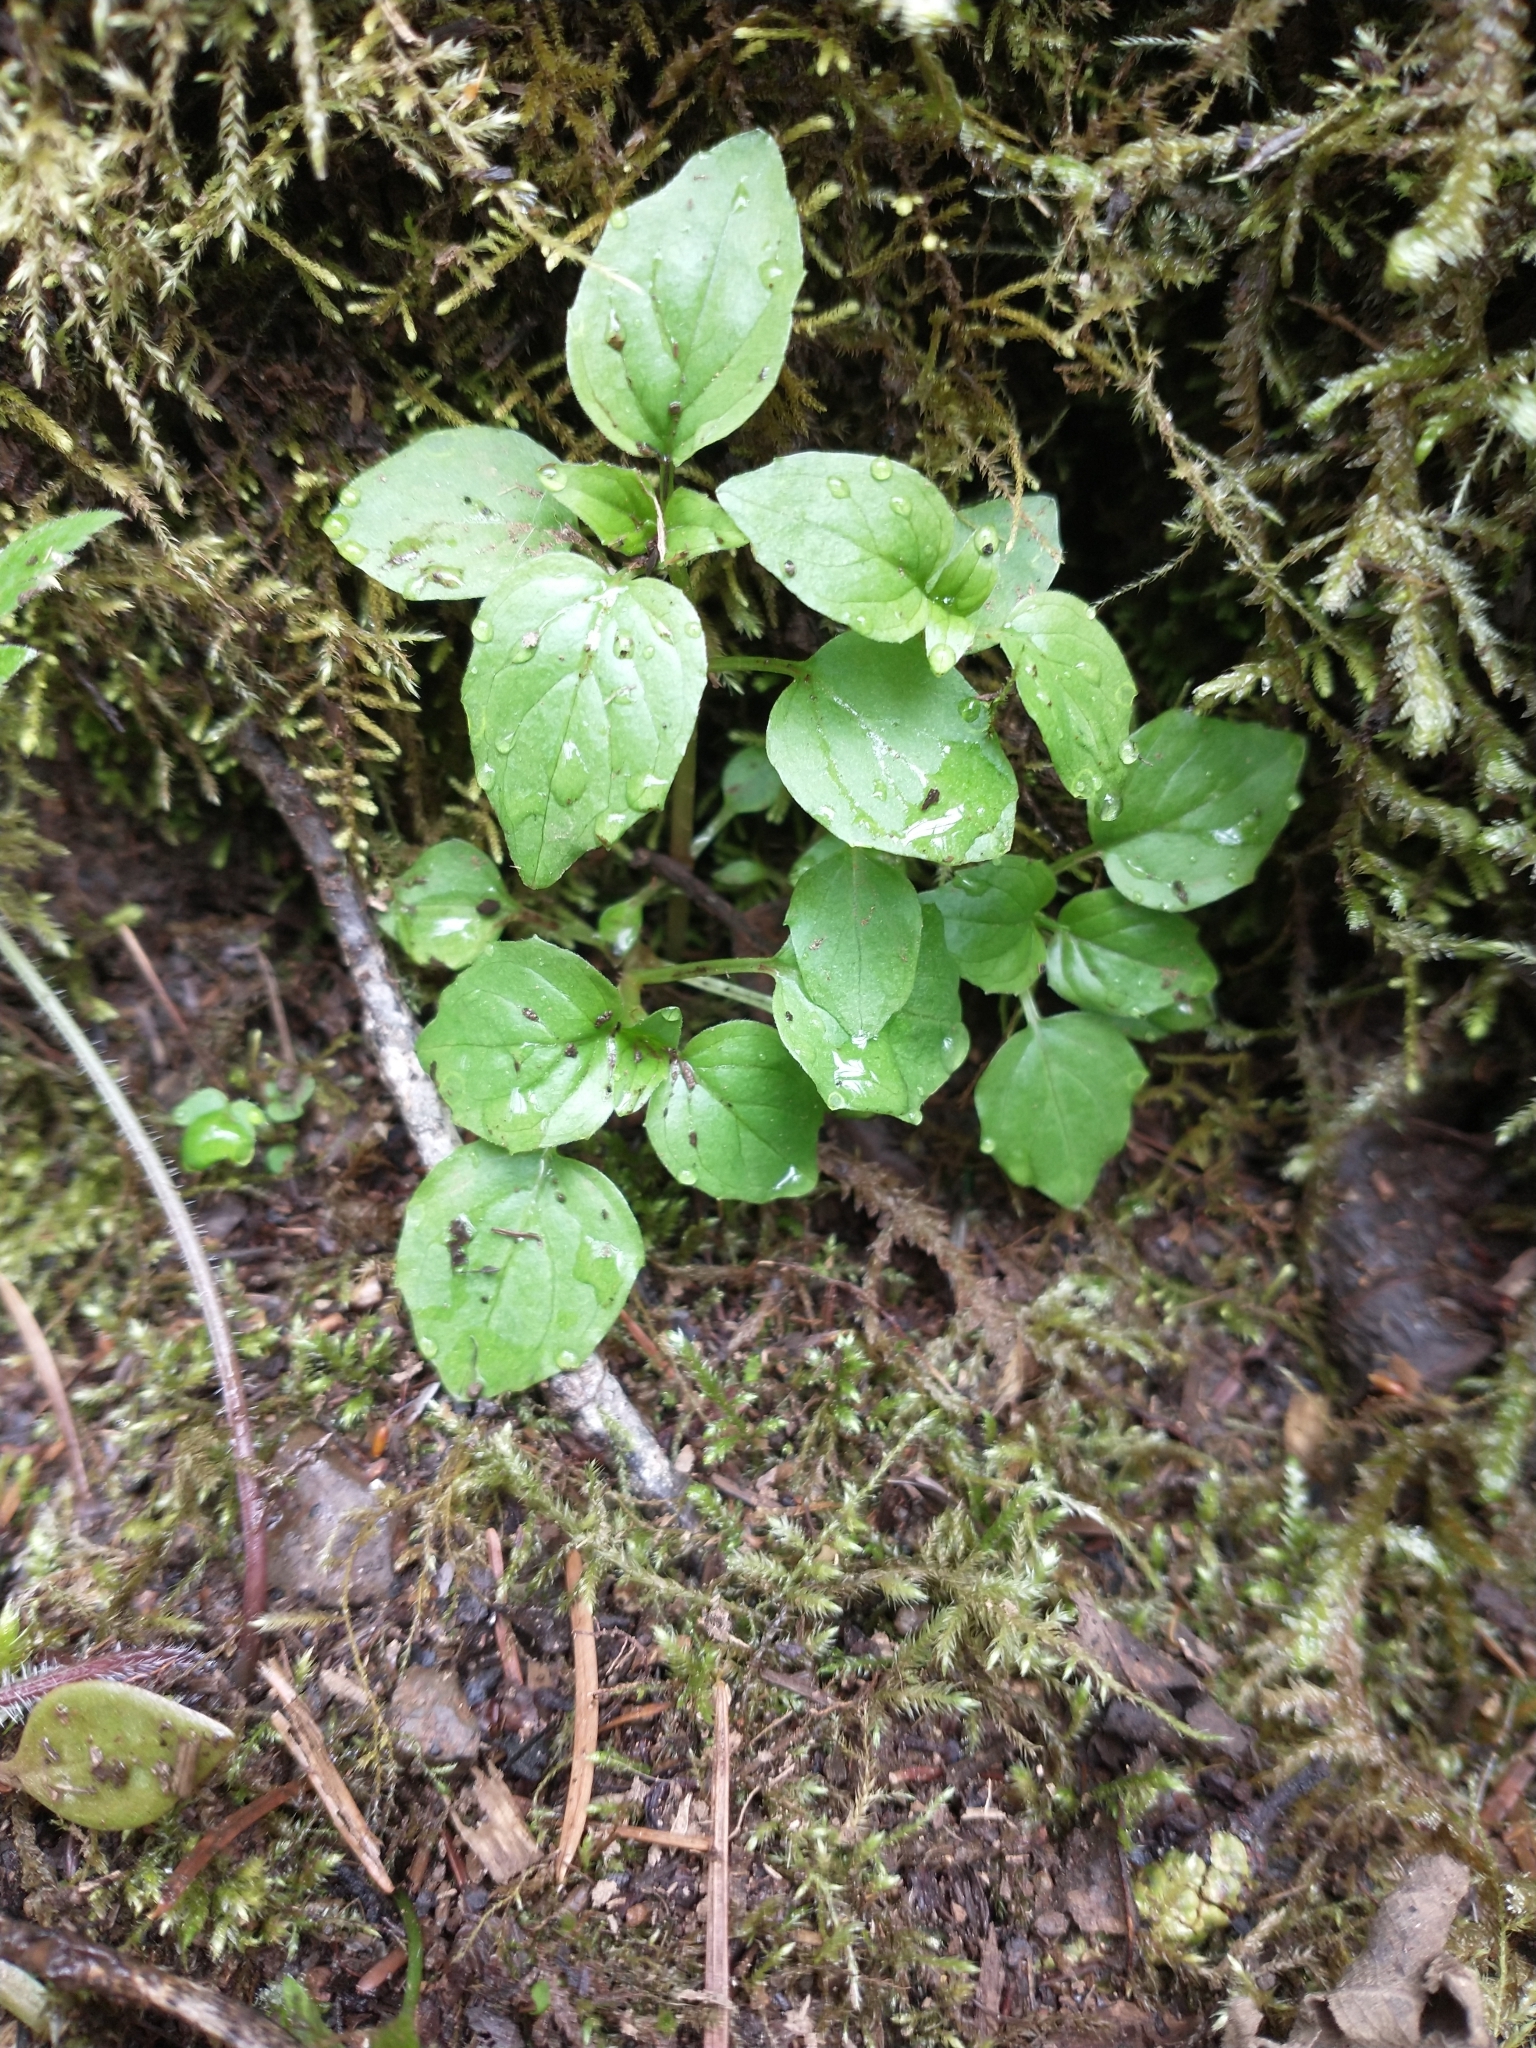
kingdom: Plantae
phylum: Tracheophyta
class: Magnoliopsida
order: Myrtales
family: Onagraceae
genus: Circaea
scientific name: Circaea alpina
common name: Alpine enchanter's-nightshade
